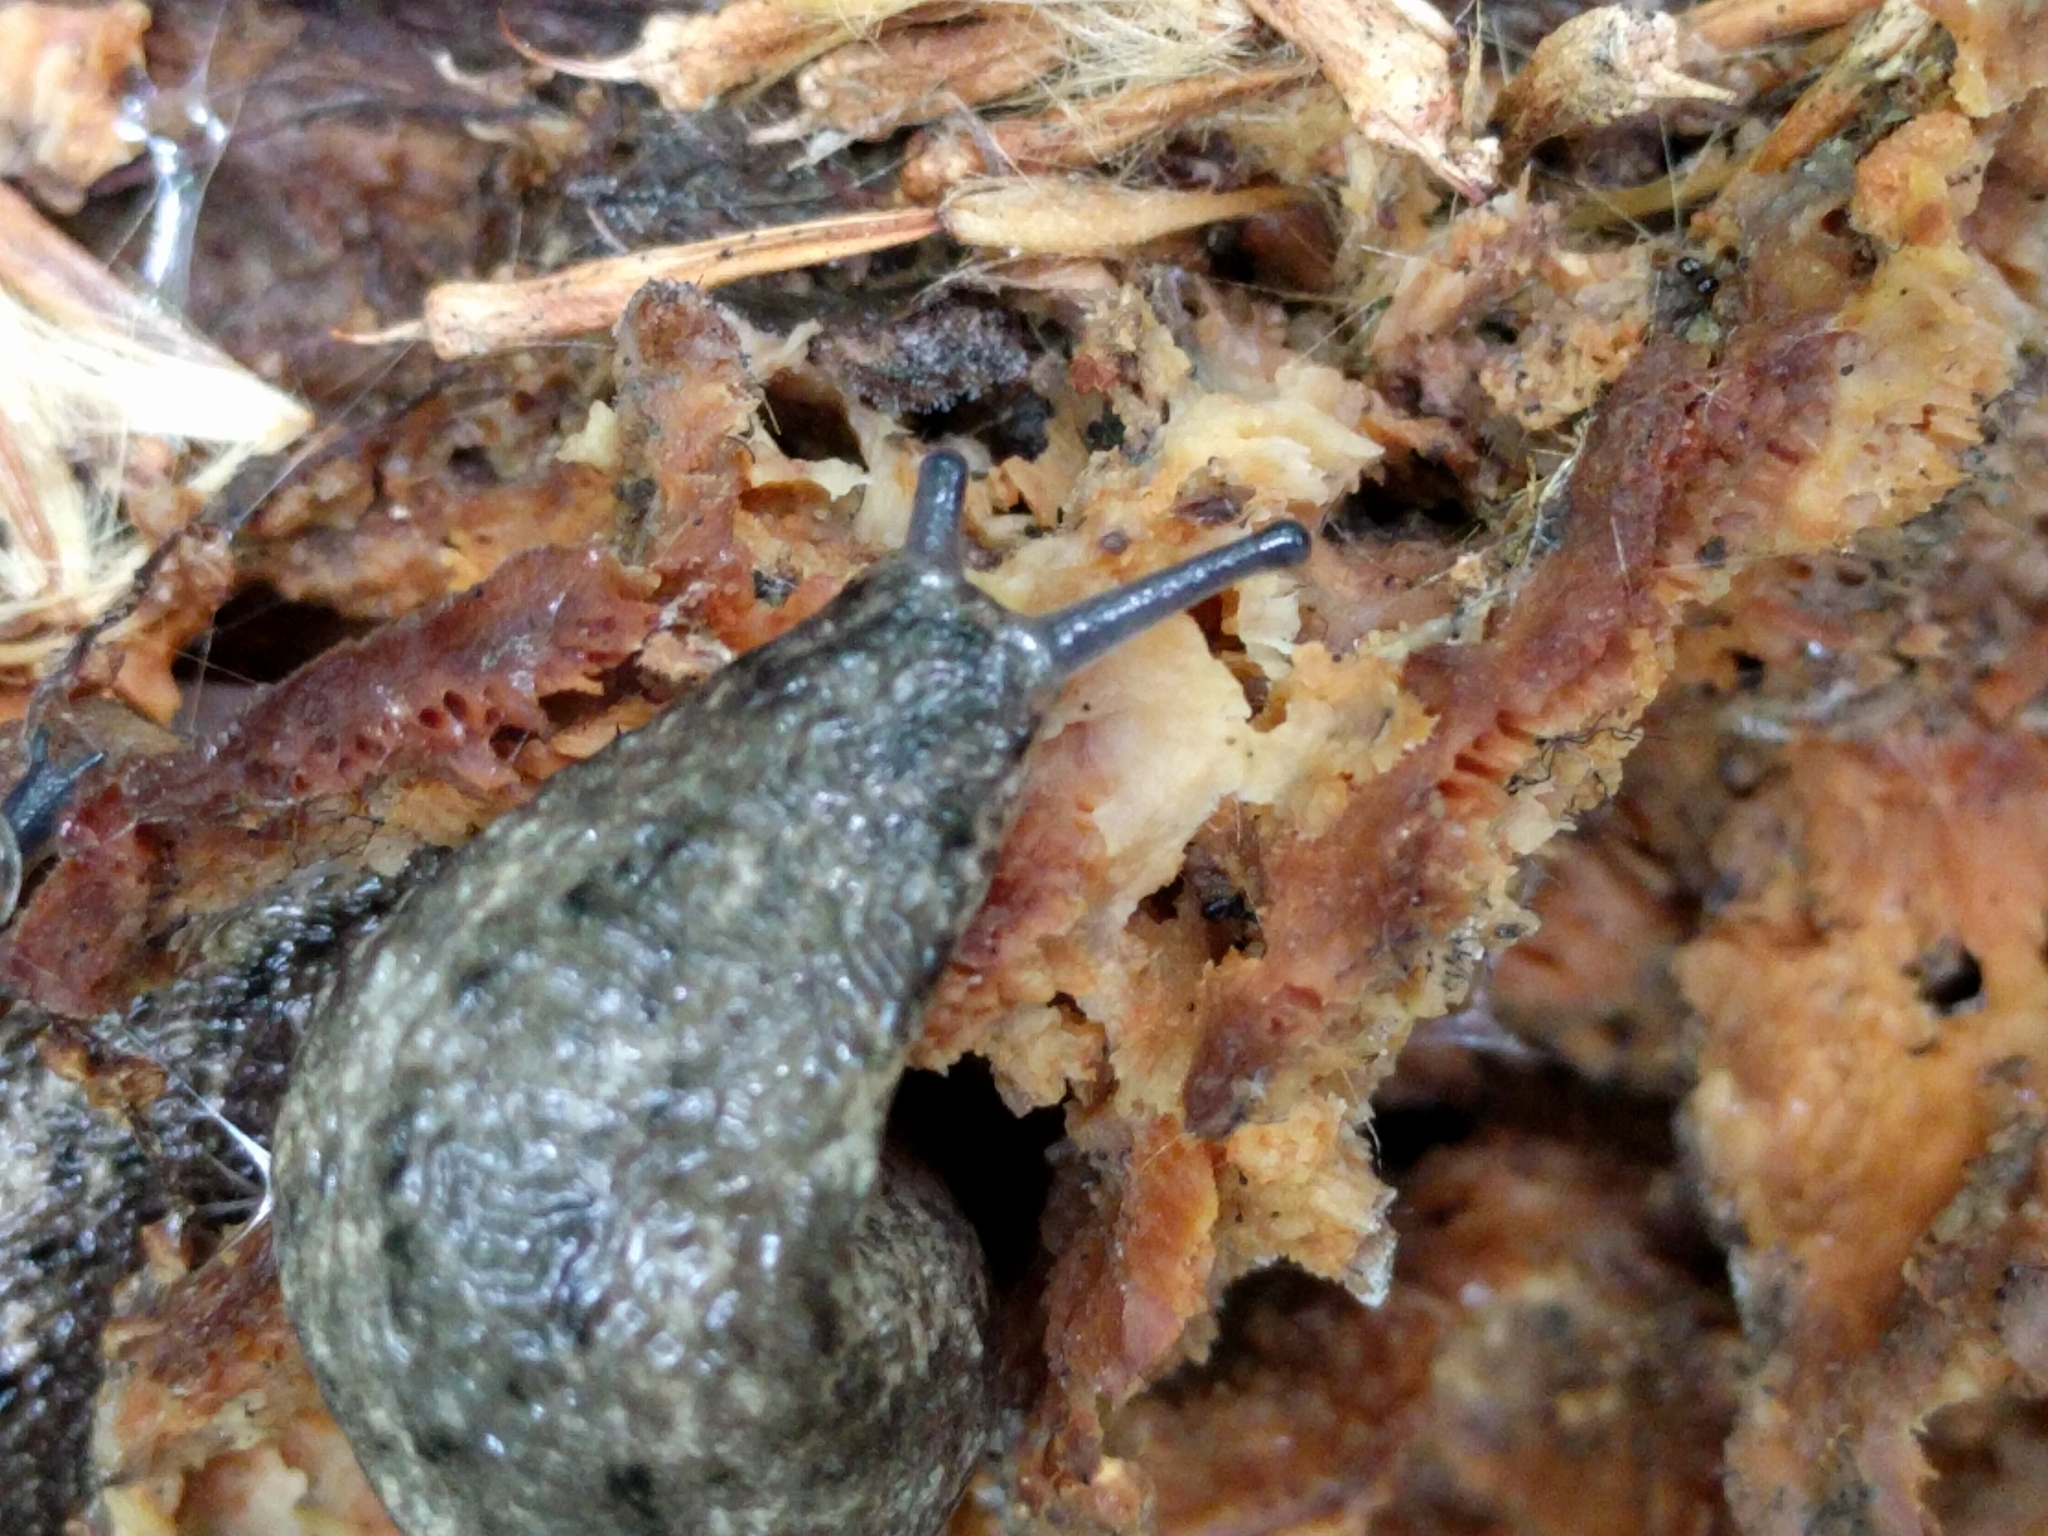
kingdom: Animalia
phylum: Mollusca
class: Gastropoda
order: Stylommatophora
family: Philomycidae
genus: Philomycus
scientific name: Philomycus carolinianus
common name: Carolina mantleslug
